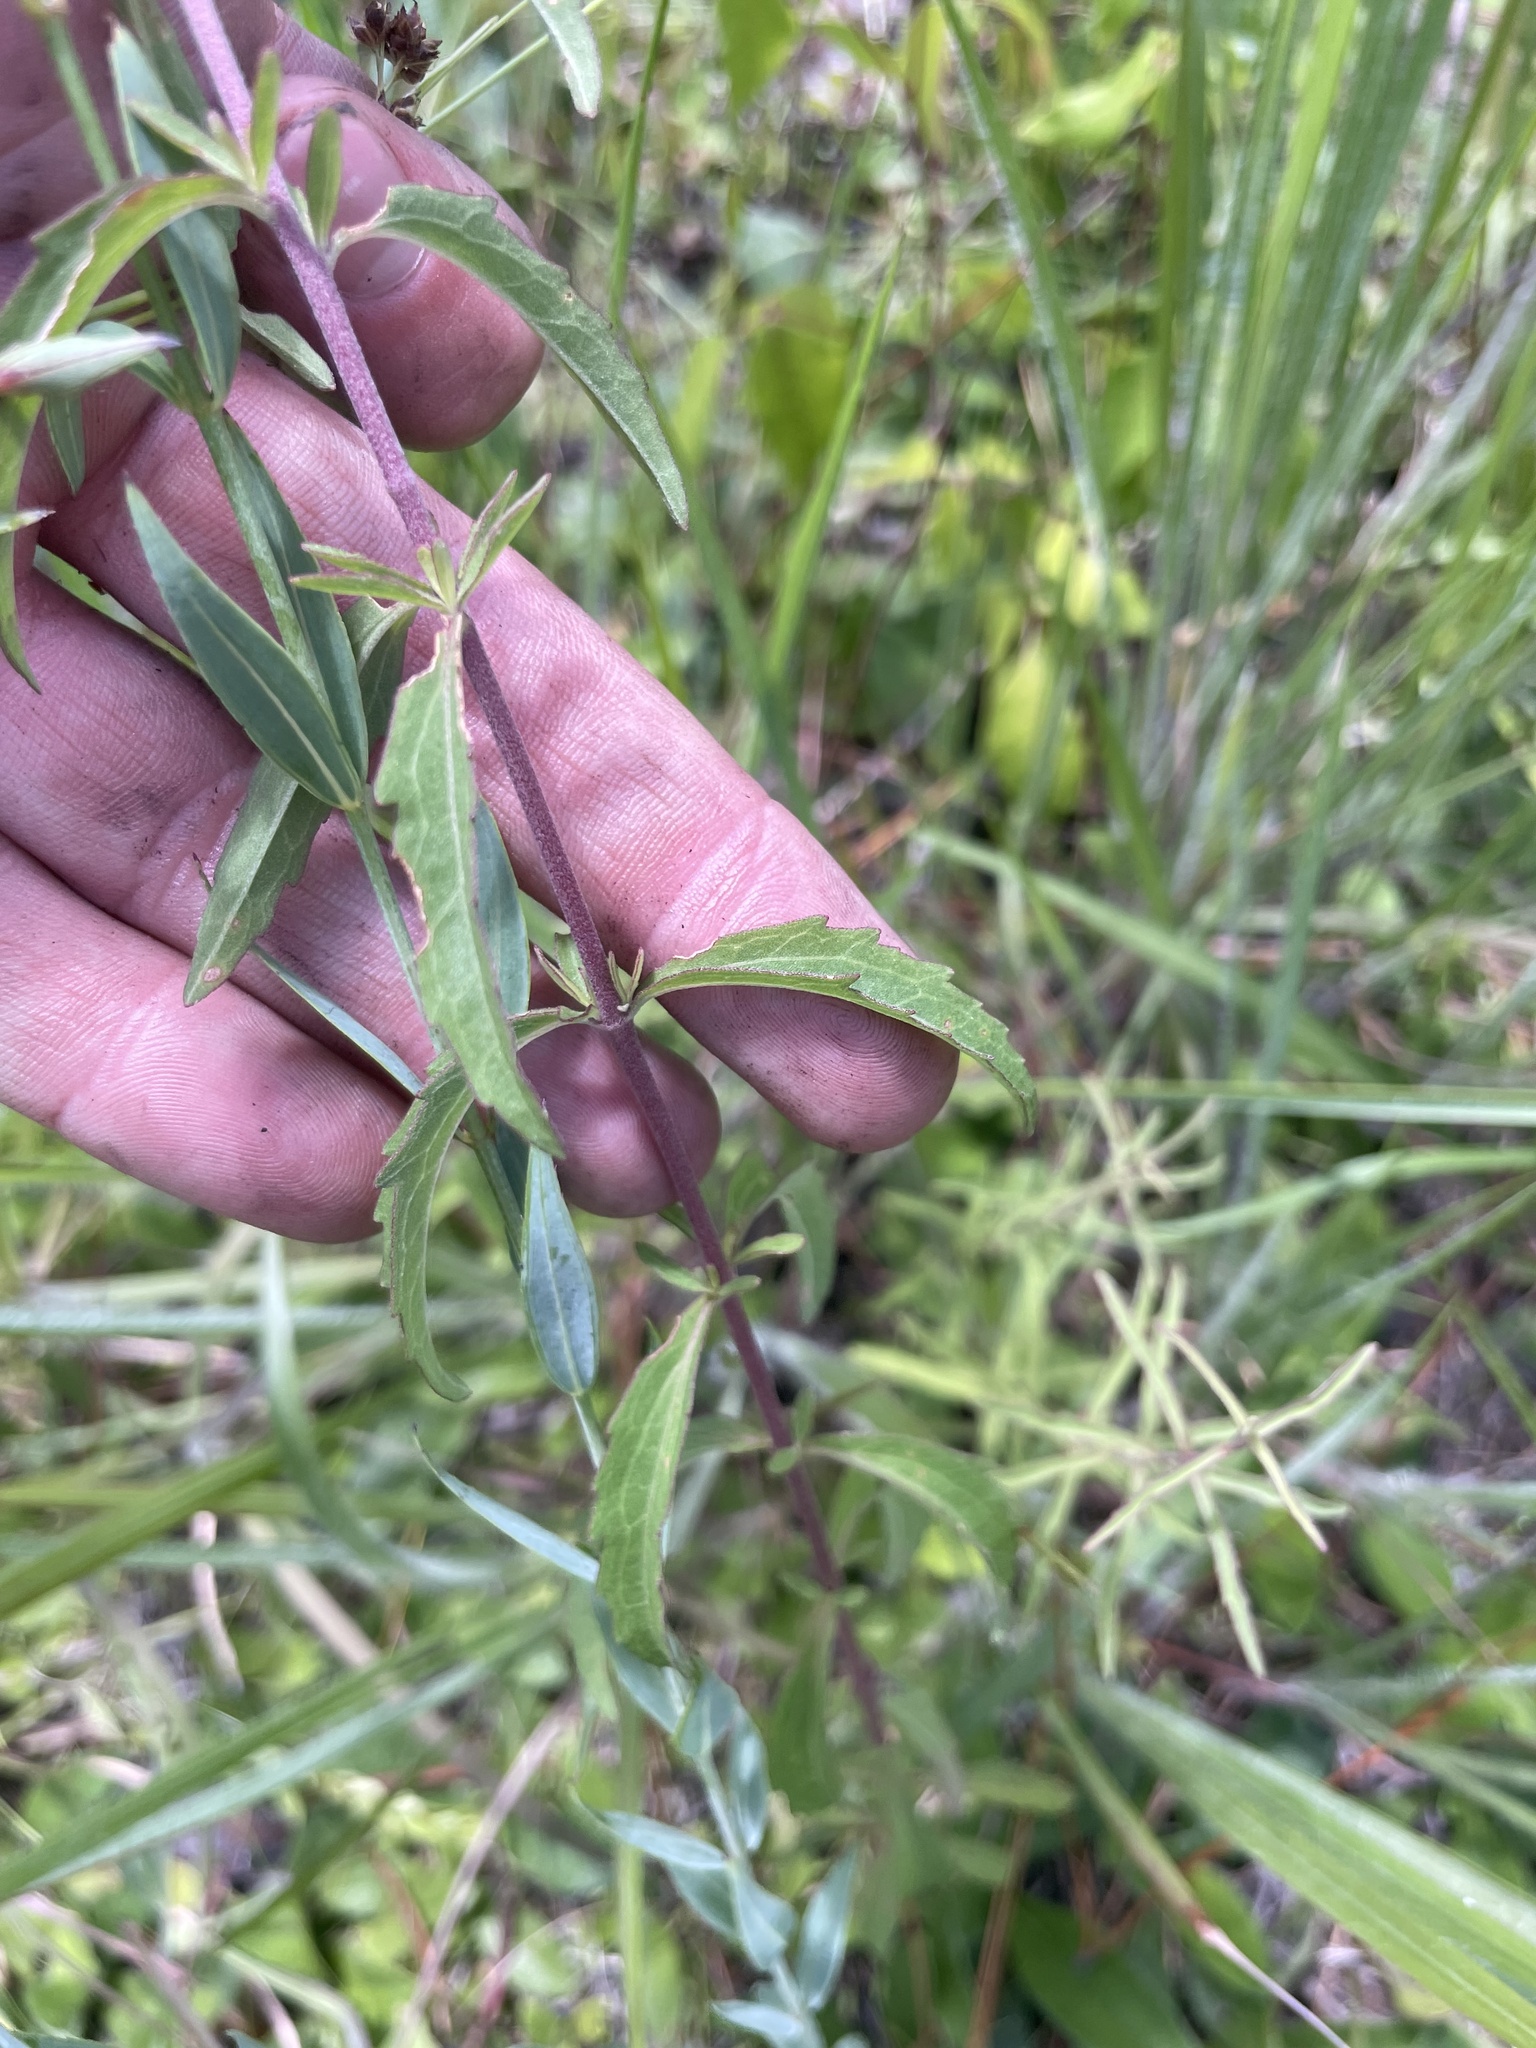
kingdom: Plantae
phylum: Tracheophyta
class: Magnoliopsida
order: Asterales
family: Asteraceae
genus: Eupatorium
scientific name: Eupatorium mohrii
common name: Mohr's thoroughwort
